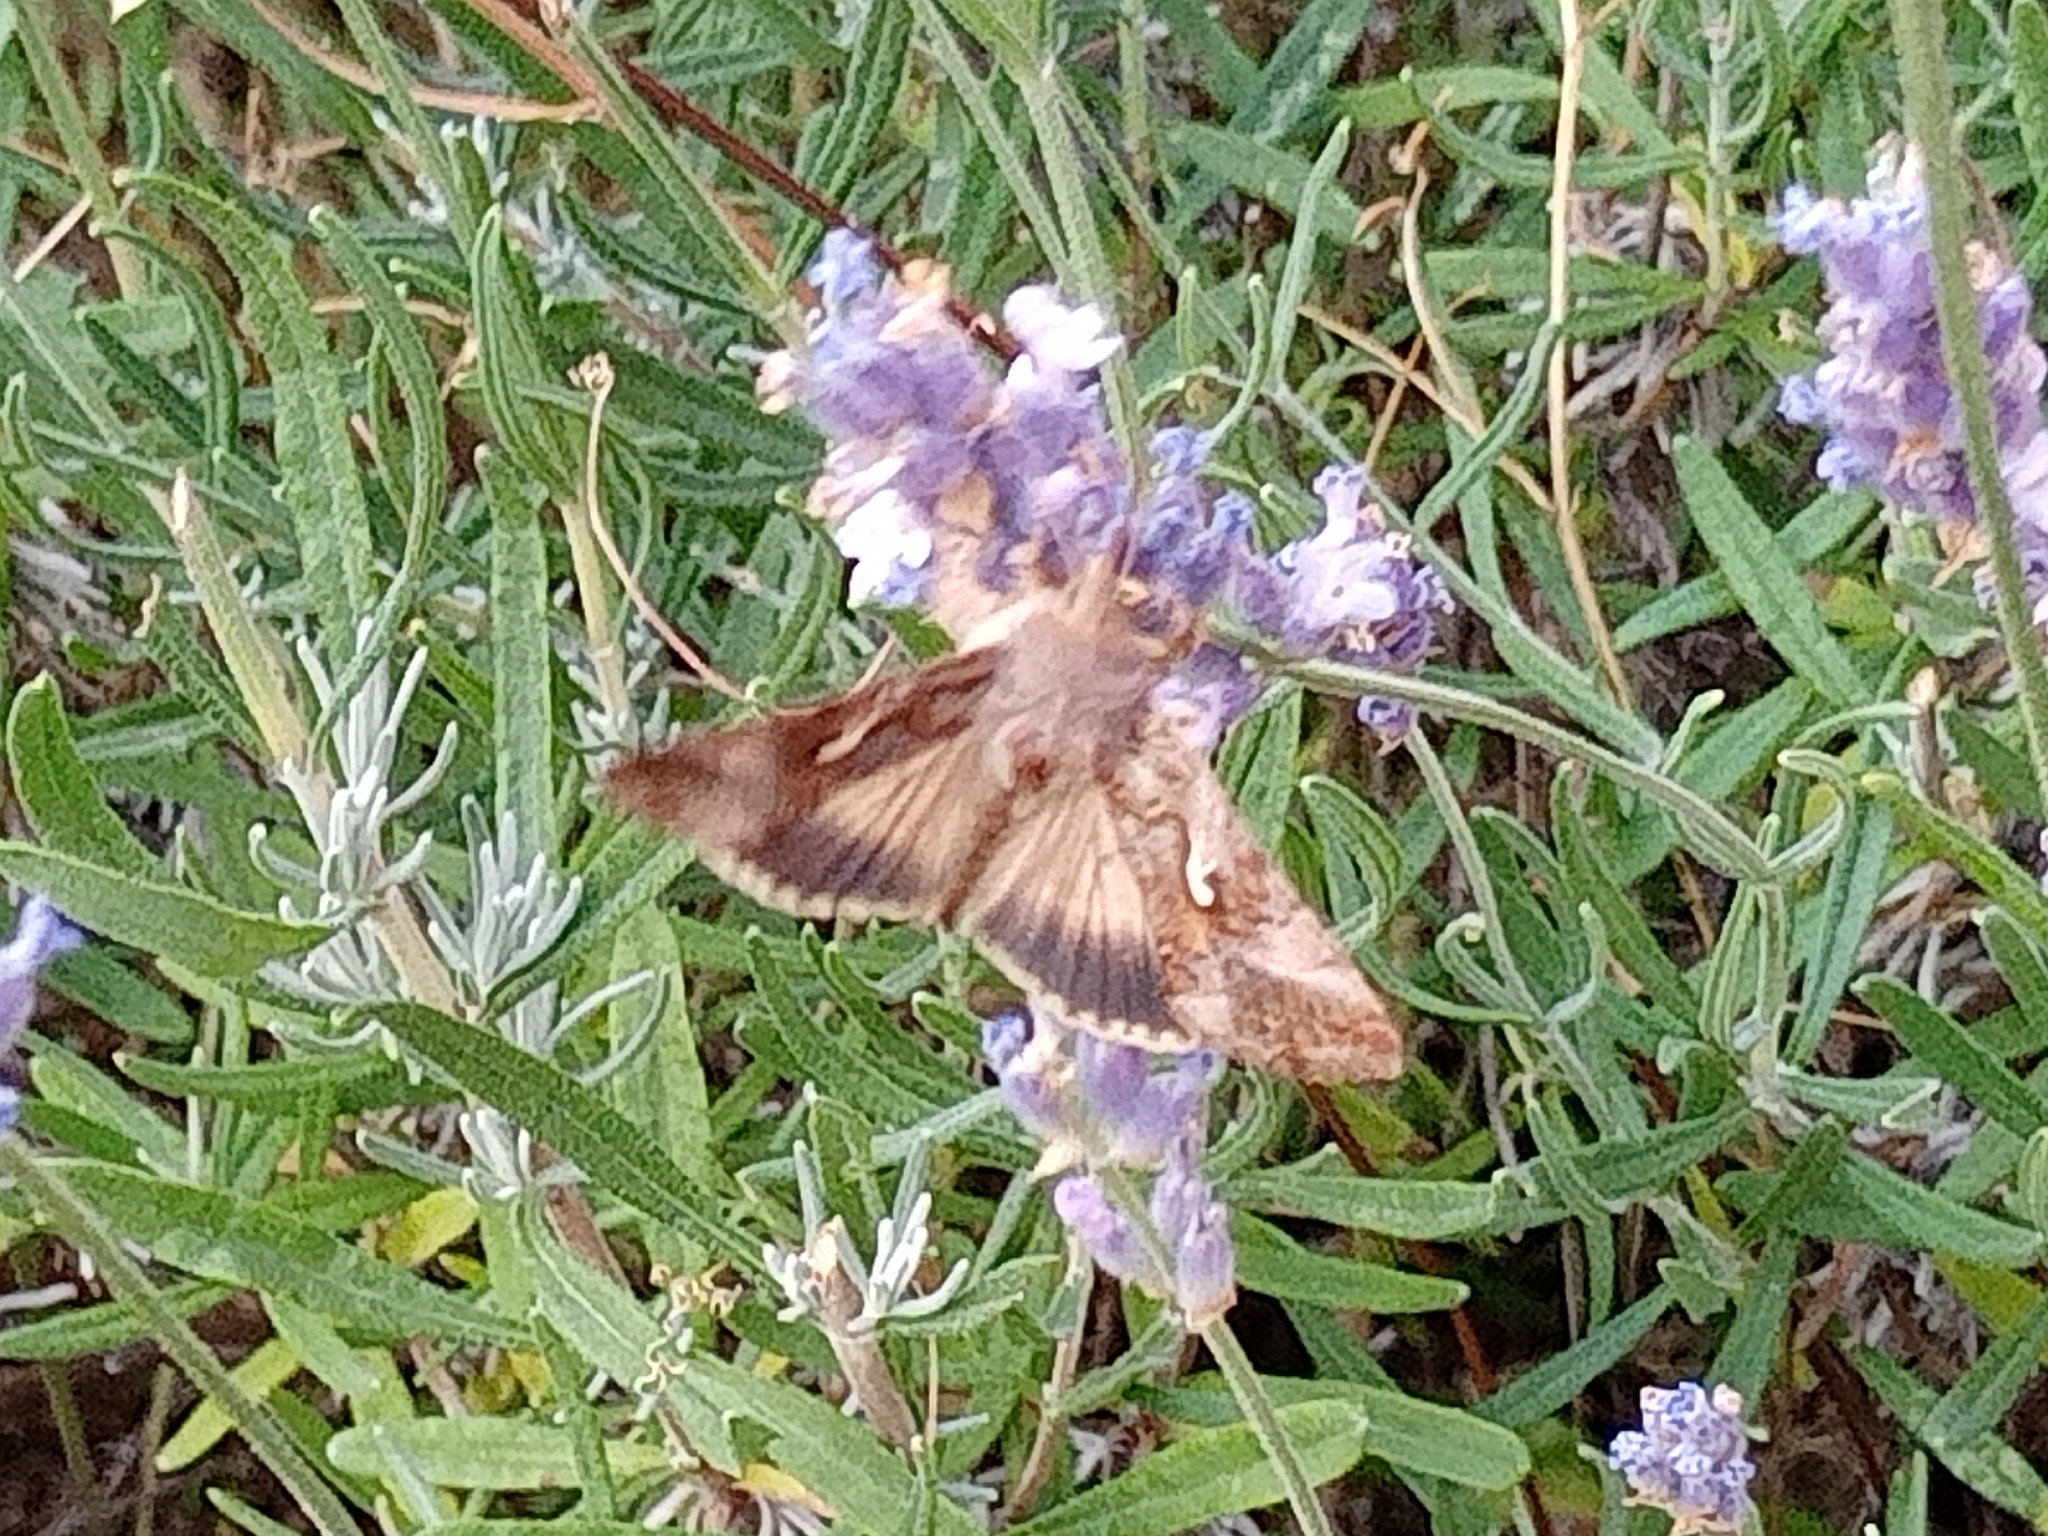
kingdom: Animalia
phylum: Arthropoda
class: Insecta
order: Lepidoptera
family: Noctuidae
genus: Autographa
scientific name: Autographa gamma
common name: Silver y
